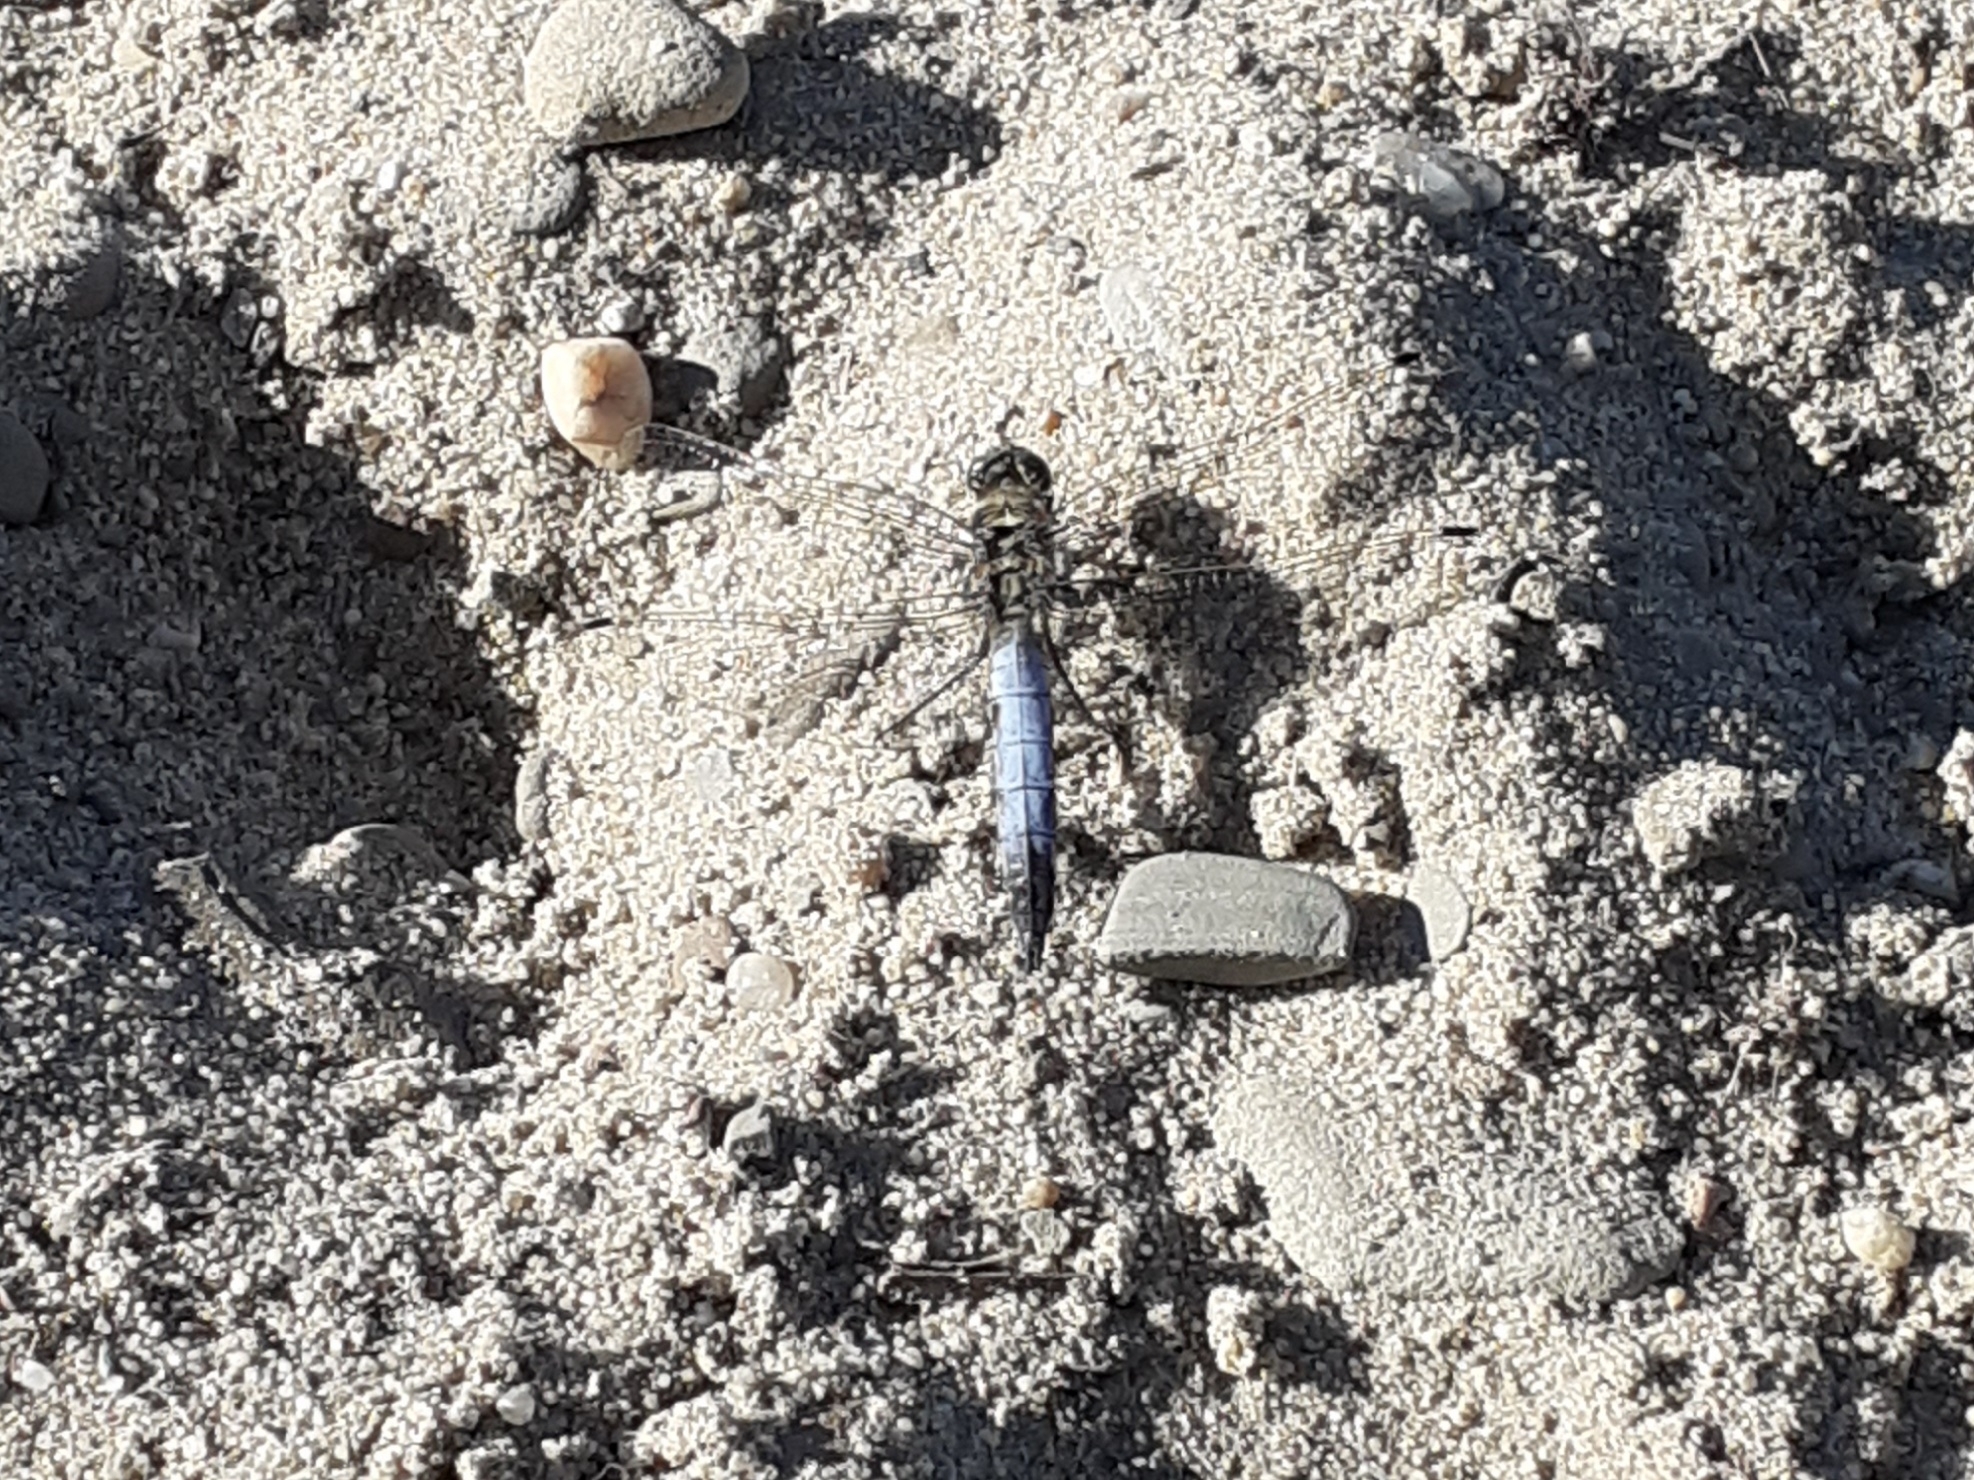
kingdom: Animalia
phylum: Arthropoda
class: Insecta
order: Odonata
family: Libellulidae
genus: Orthetrum
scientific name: Orthetrum cancellatum
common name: Black-tailed skimmer
